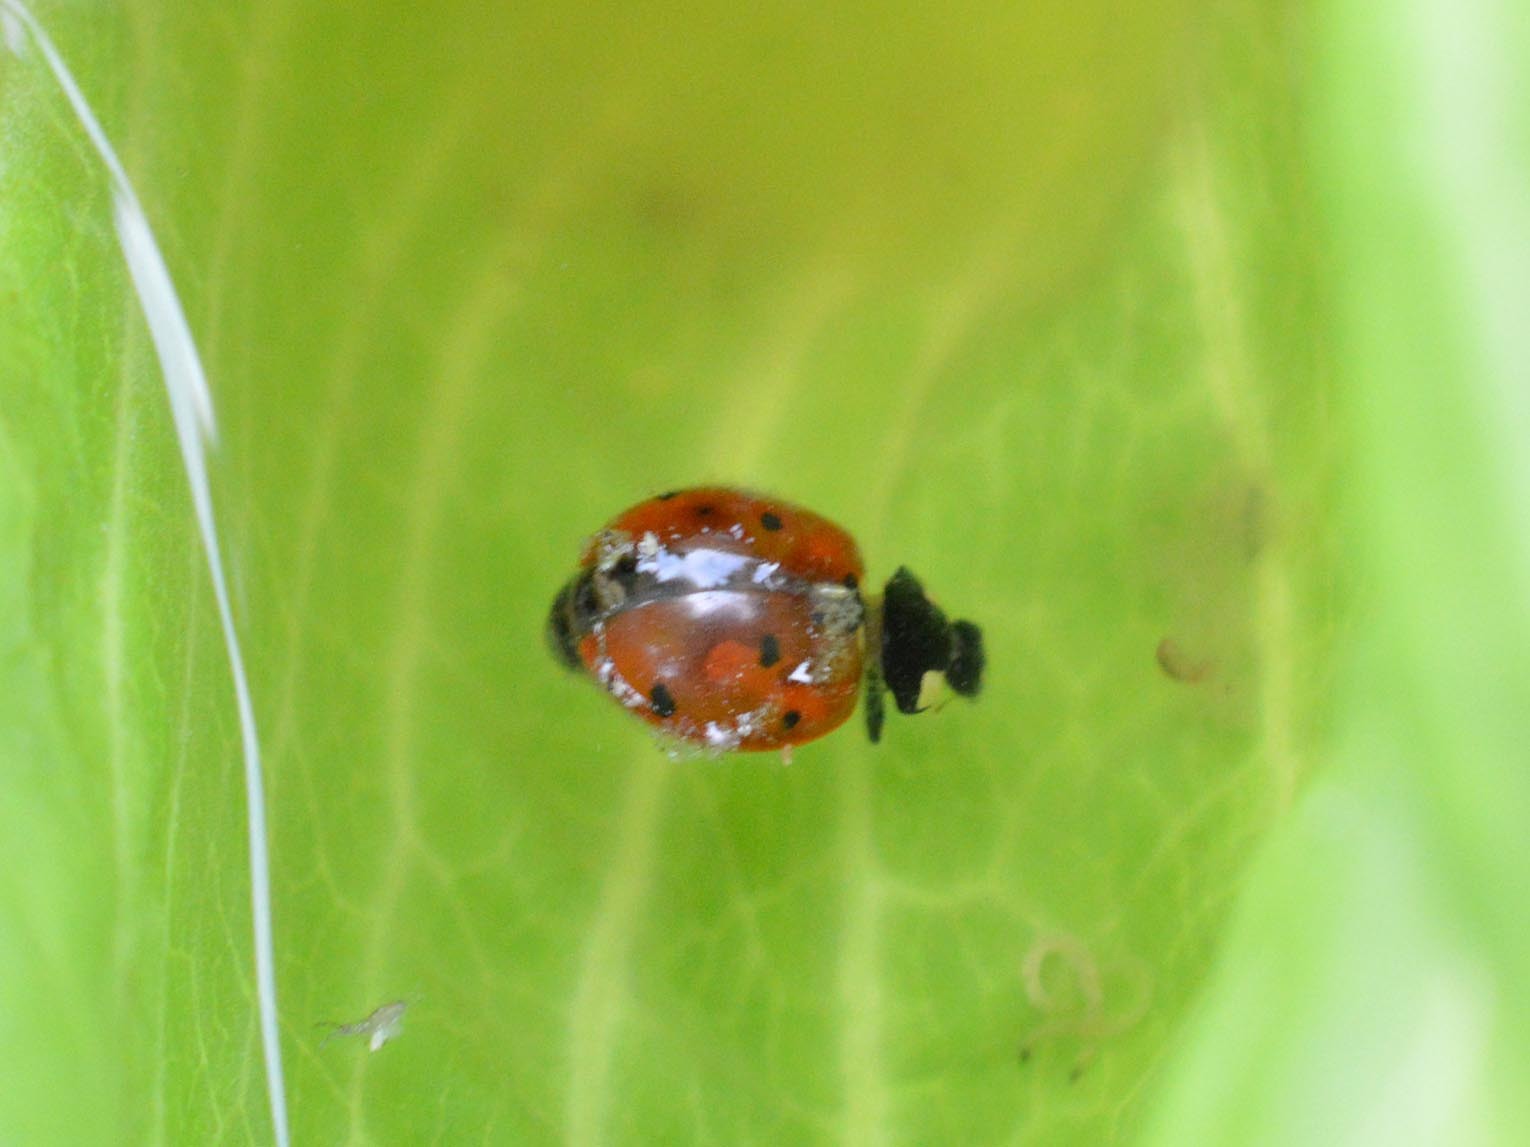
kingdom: Animalia
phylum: Arthropoda
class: Insecta
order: Coleoptera
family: Coccinellidae
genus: Coccinella
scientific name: Coccinella septempunctata
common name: Sevenspotted lady beetle
